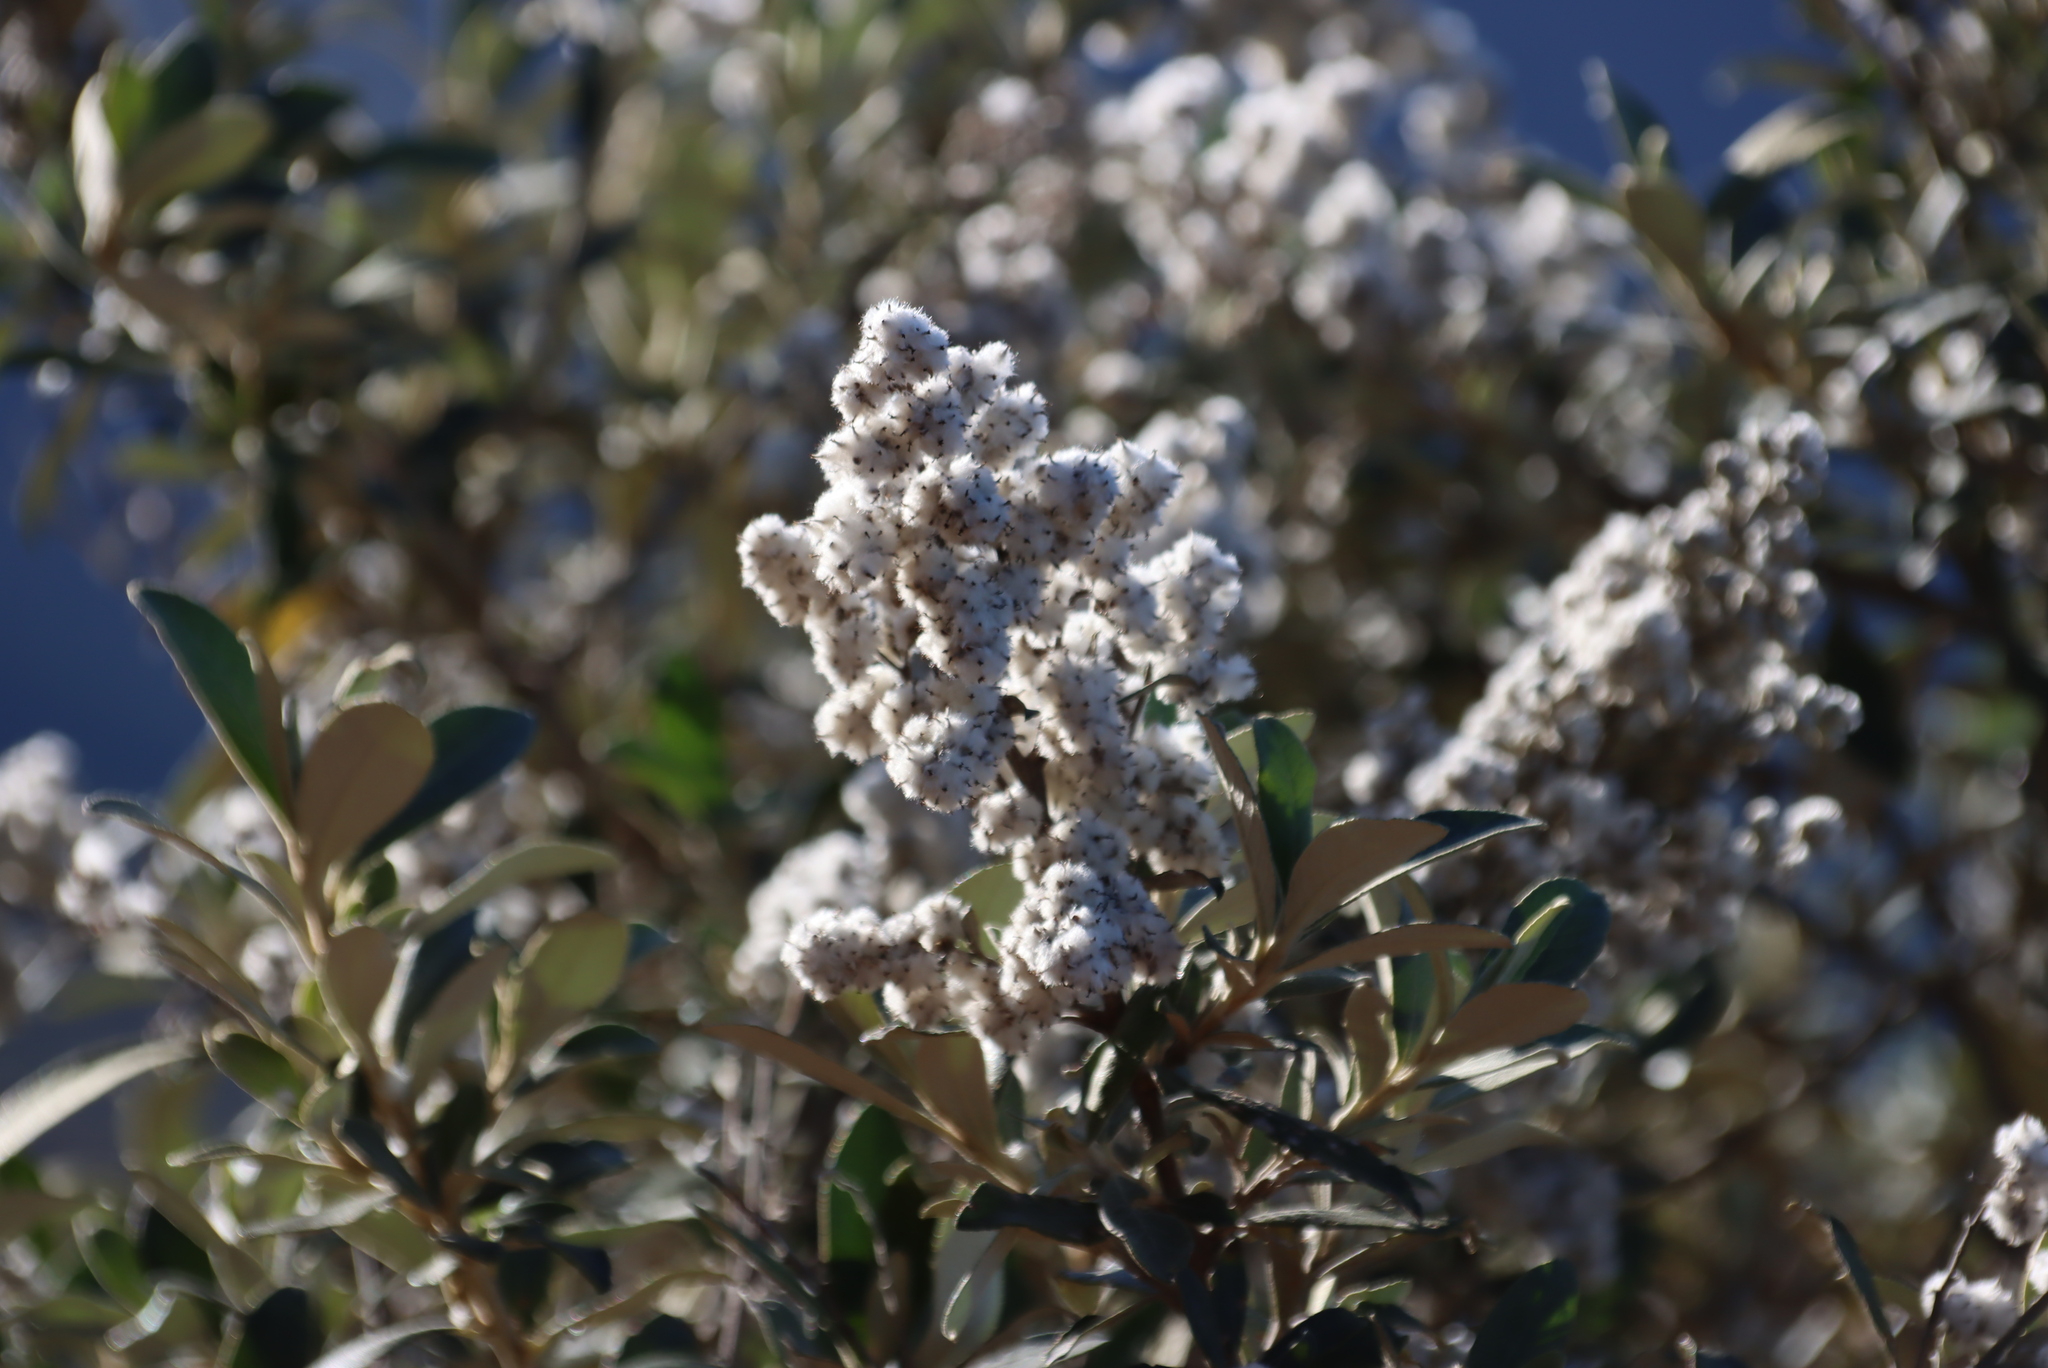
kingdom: Plantae
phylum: Tracheophyta
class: Magnoliopsida
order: Asterales
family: Asteraceae
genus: Tarchonanthus
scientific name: Tarchonanthus littoralis
